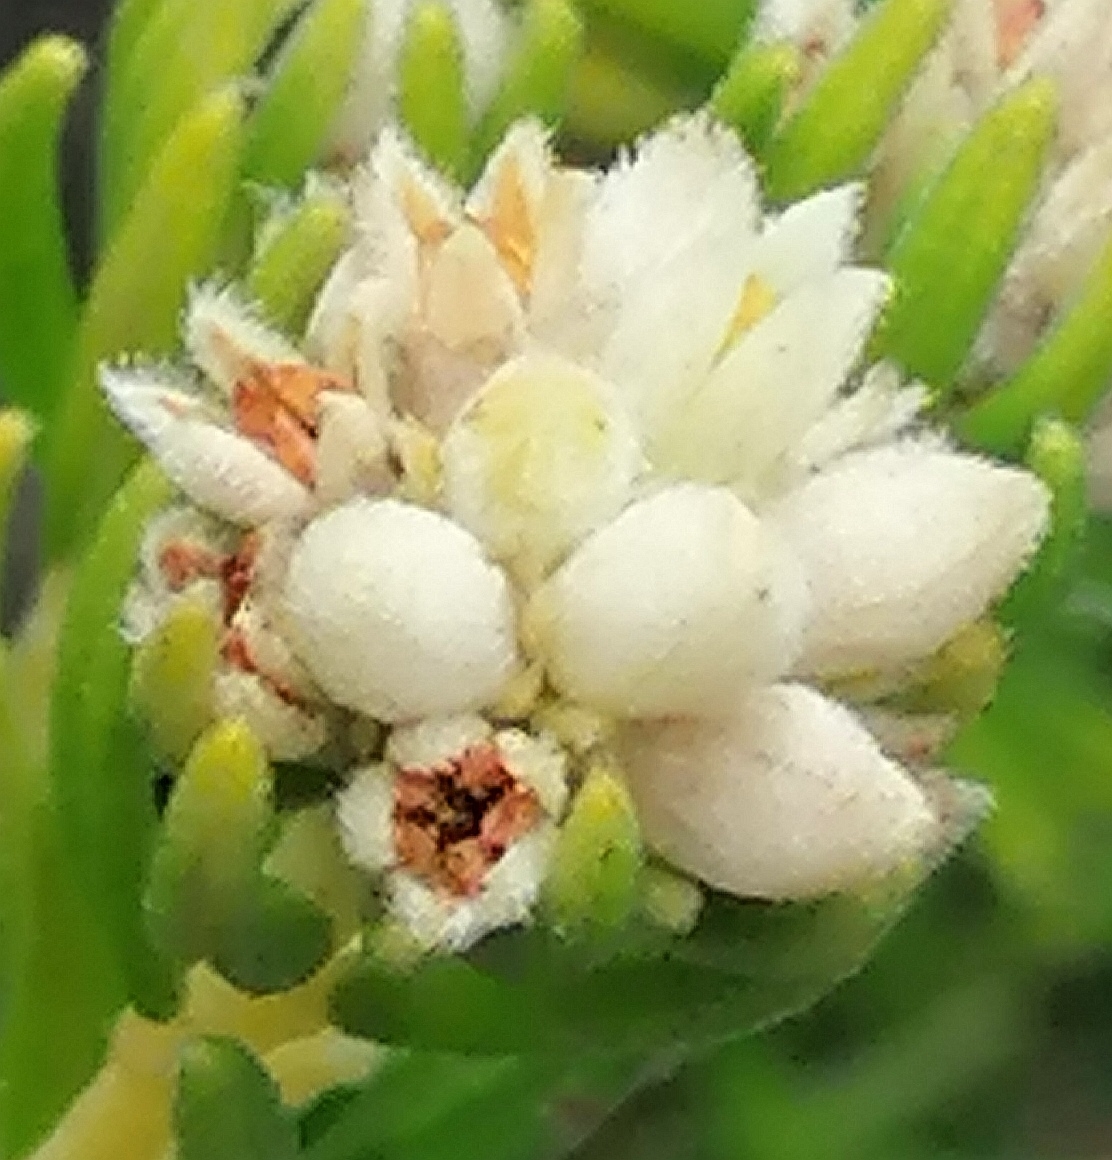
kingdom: Plantae
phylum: Tracheophyta
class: Magnoliopsida
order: Rosales
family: Rhamnaceae
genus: Phylica
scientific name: Phylica imberbis
